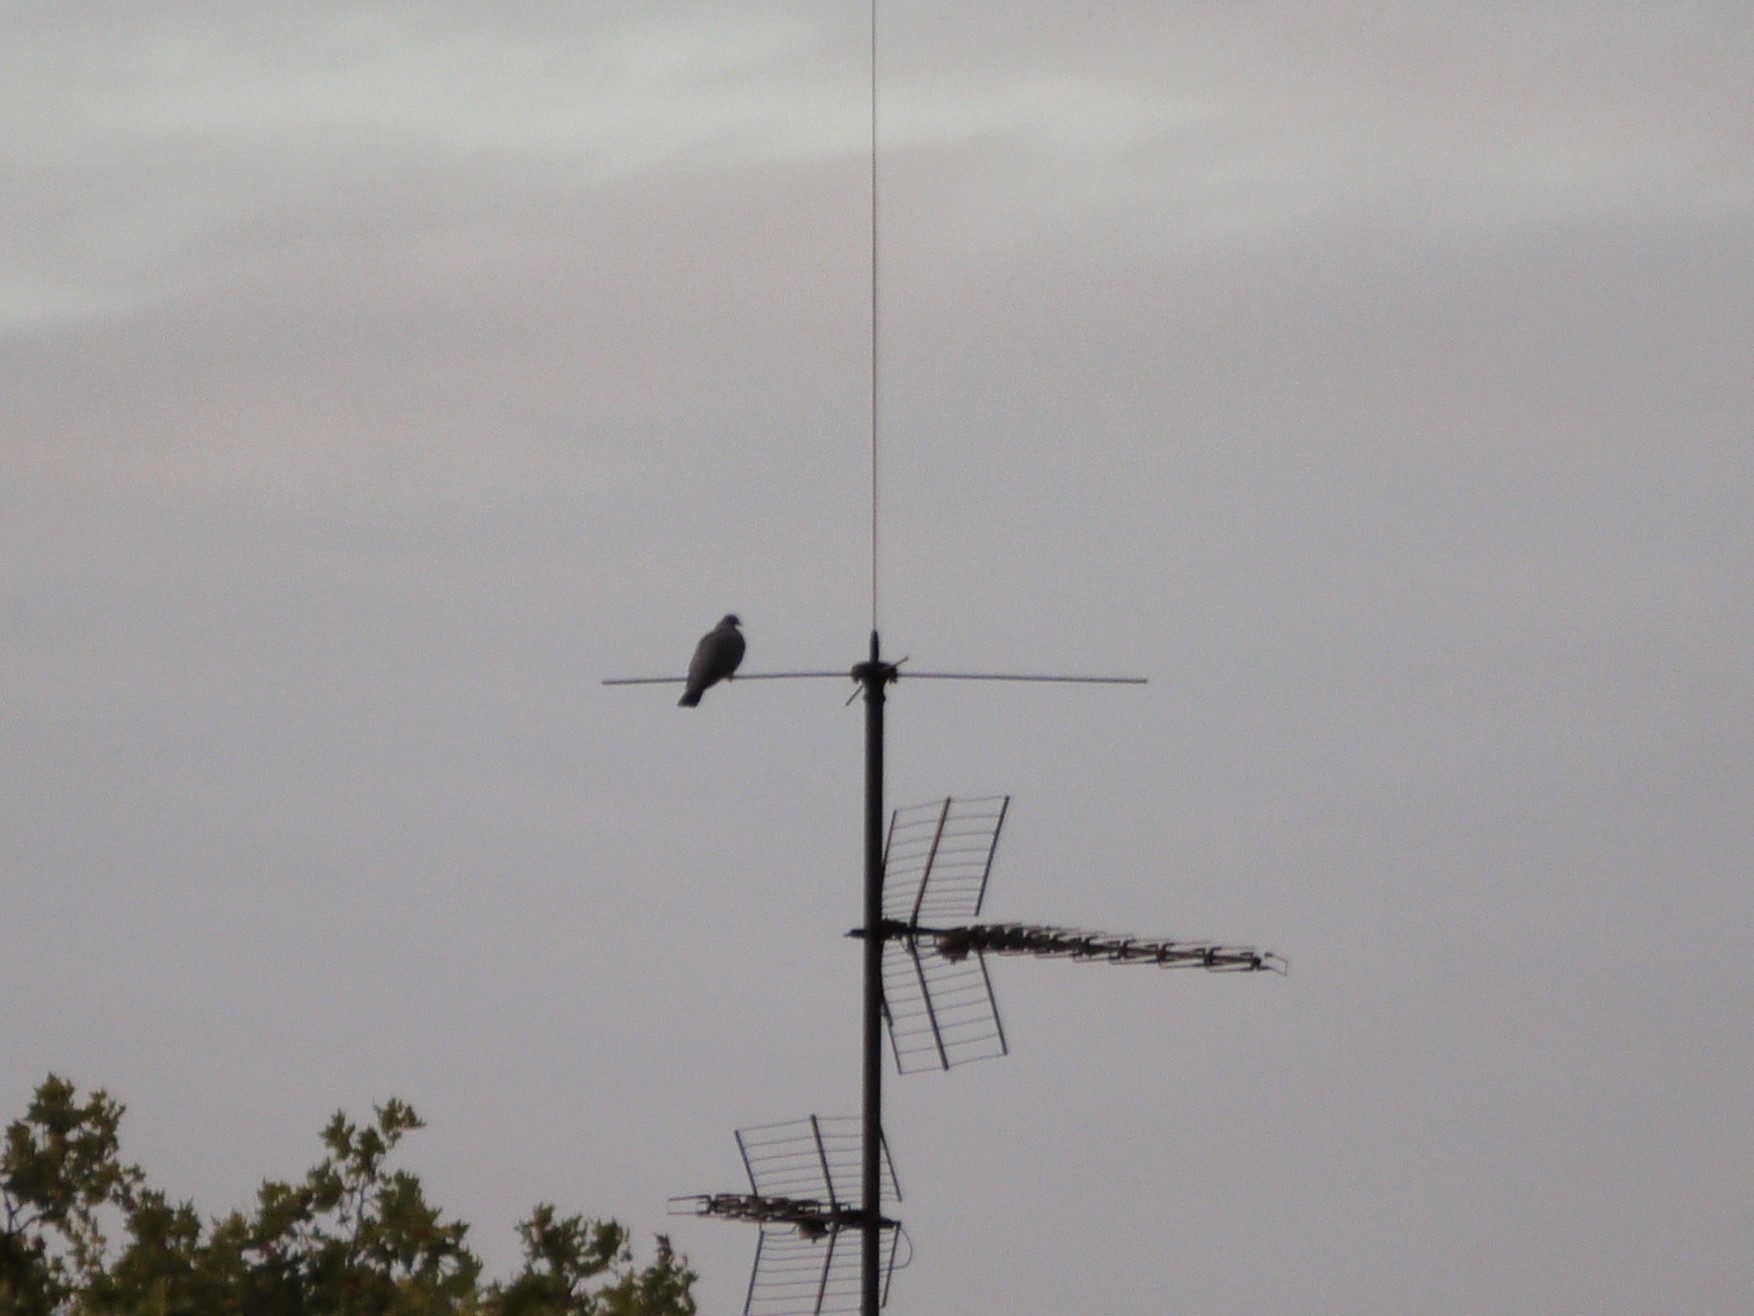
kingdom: Animalia
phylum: Chordata
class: Aves
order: Columbiformes
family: Columbidae
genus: Columba
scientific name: Columba palumbus
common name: Common wood pigeon
